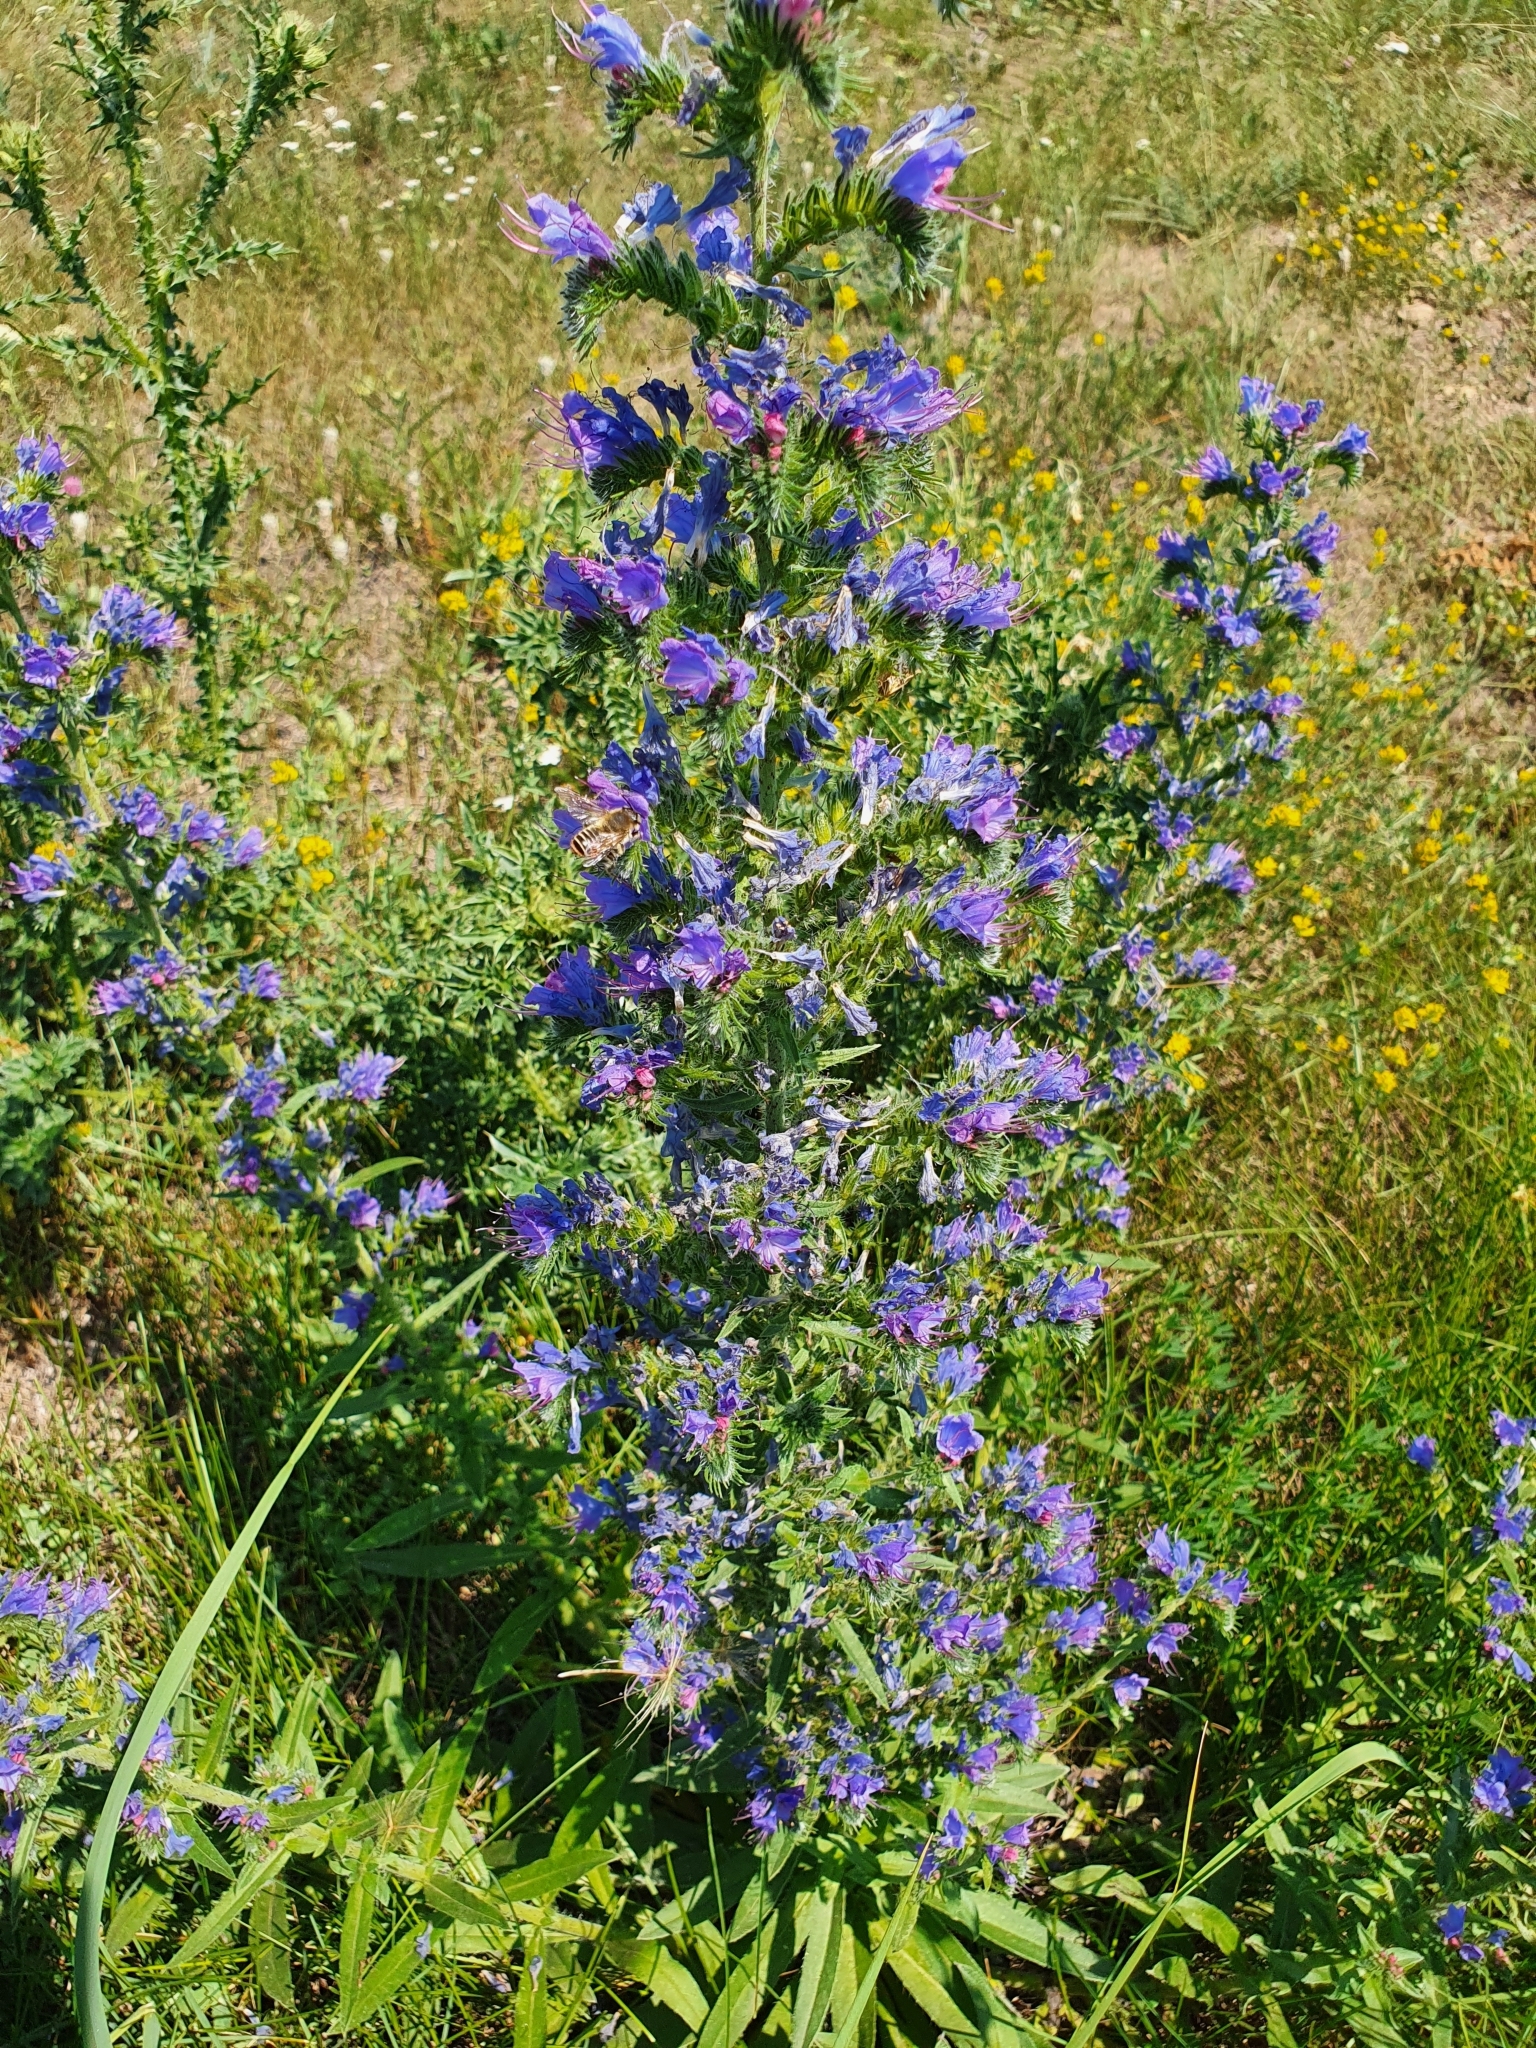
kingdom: Plantae
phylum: Tracheophyta
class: Magnoliopsida
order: Boraginales
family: Boraginaceae
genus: Echium
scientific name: Echium vulgare
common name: Common viper's bugloss
